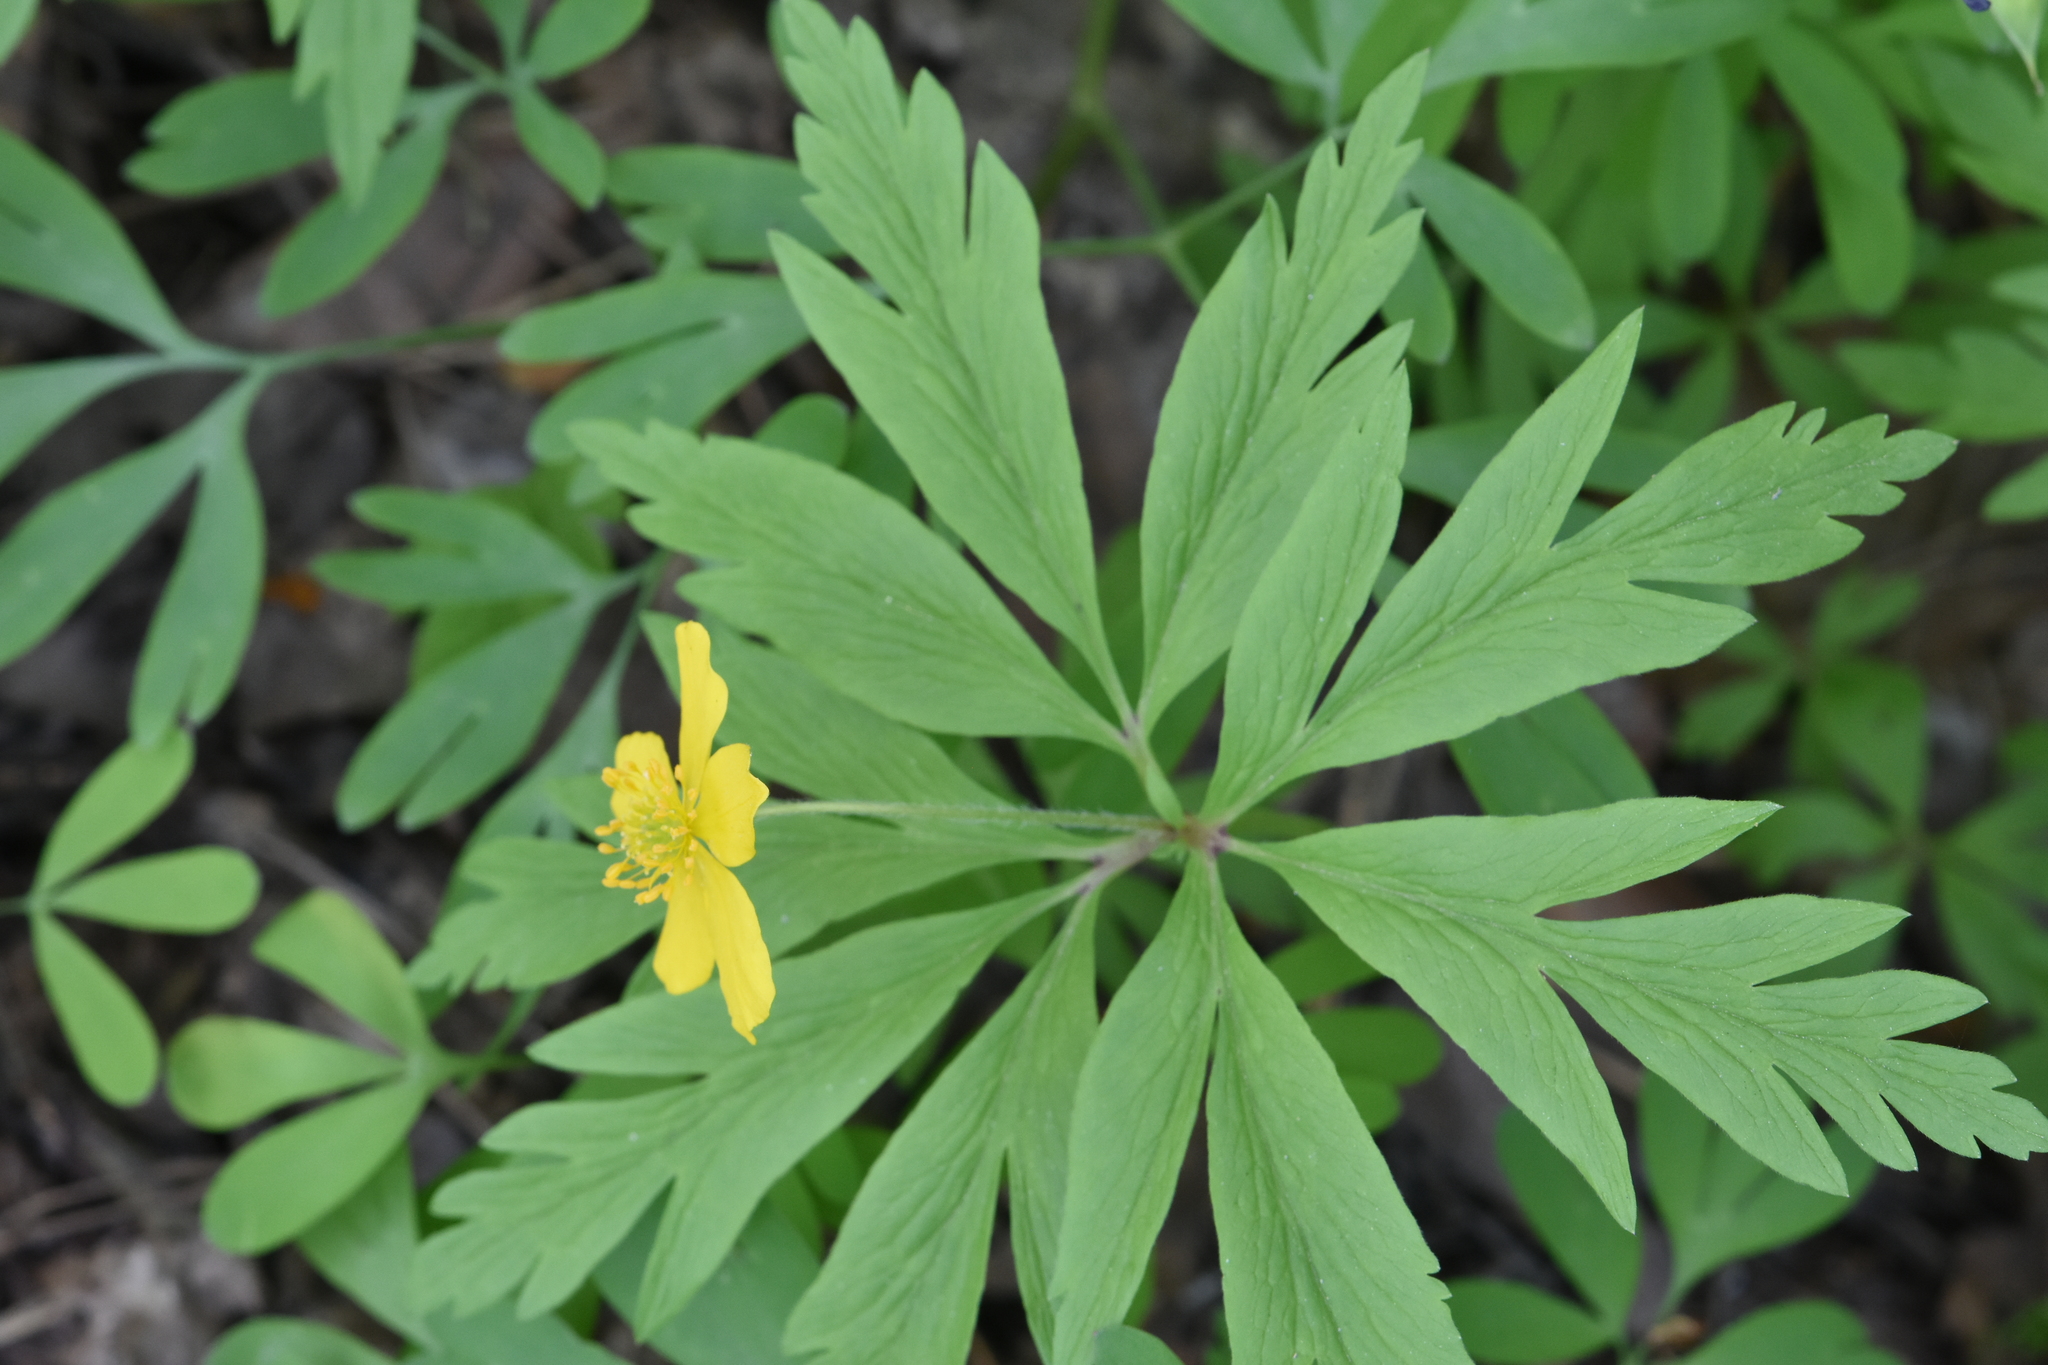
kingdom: Plantae
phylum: Tracheophyta
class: Magnoliopsida
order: Ranunculales
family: Ranunculaceae
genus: Anemone
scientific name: Anemone ranunculoides
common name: Yellow anemone
